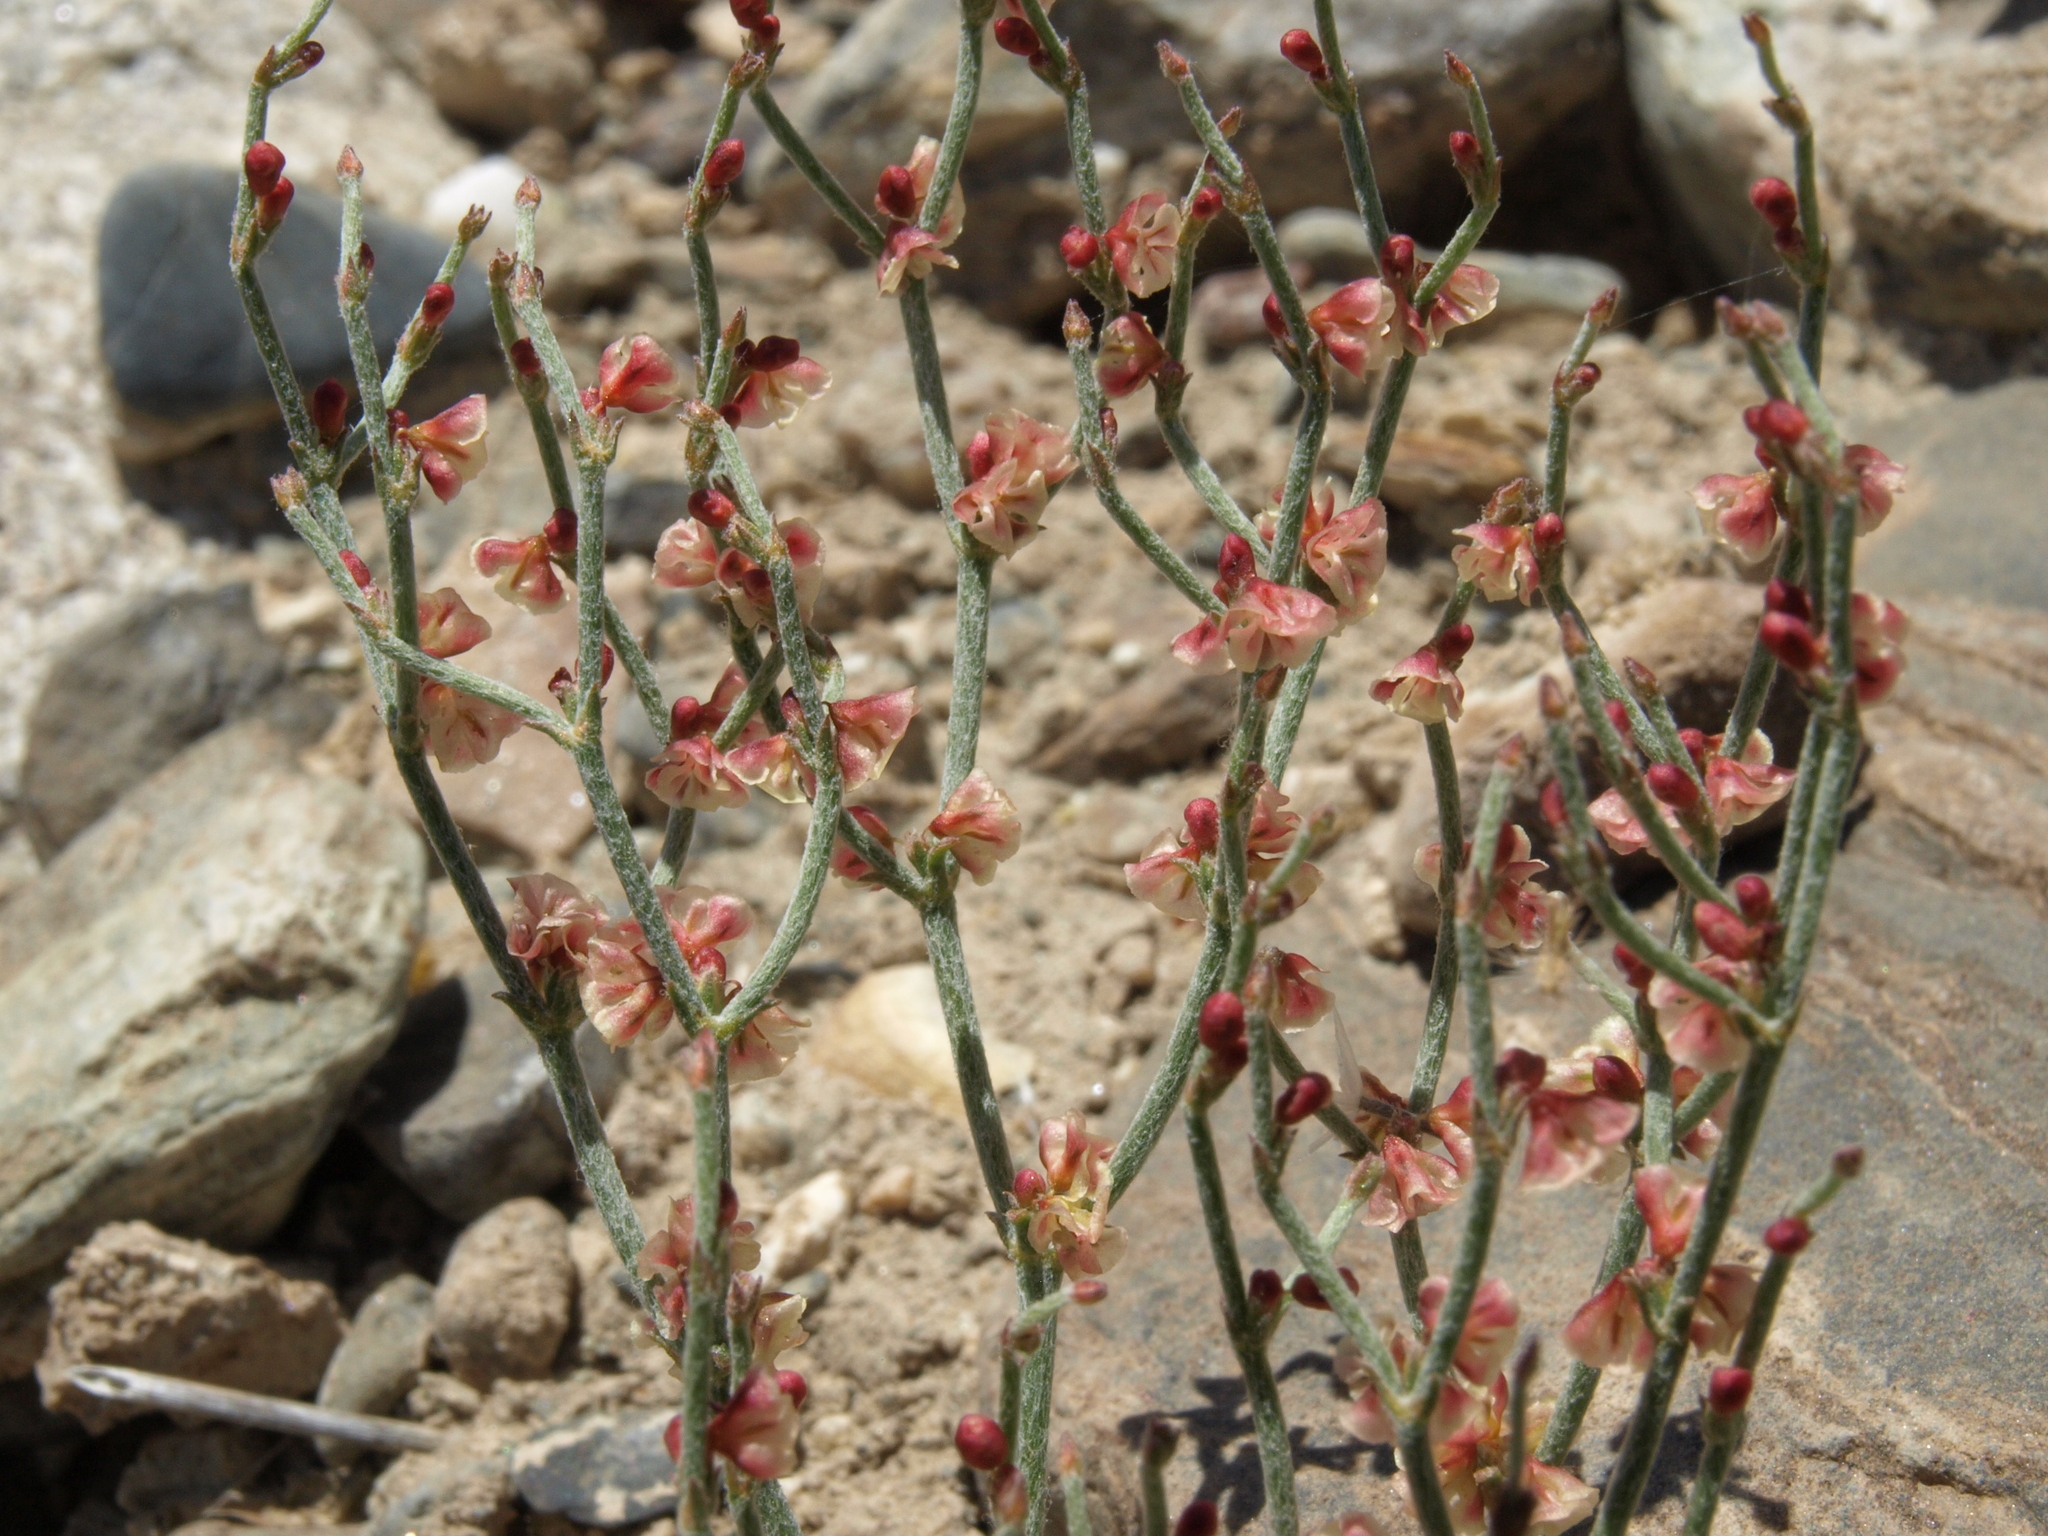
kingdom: Plantae
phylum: Tracheophyta
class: Magnoliopsida
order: Caryophyllales
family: Polygonaceae
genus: Eriogonum
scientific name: Eriogonum nidularium
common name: Bird's-nest wild buckwheat
